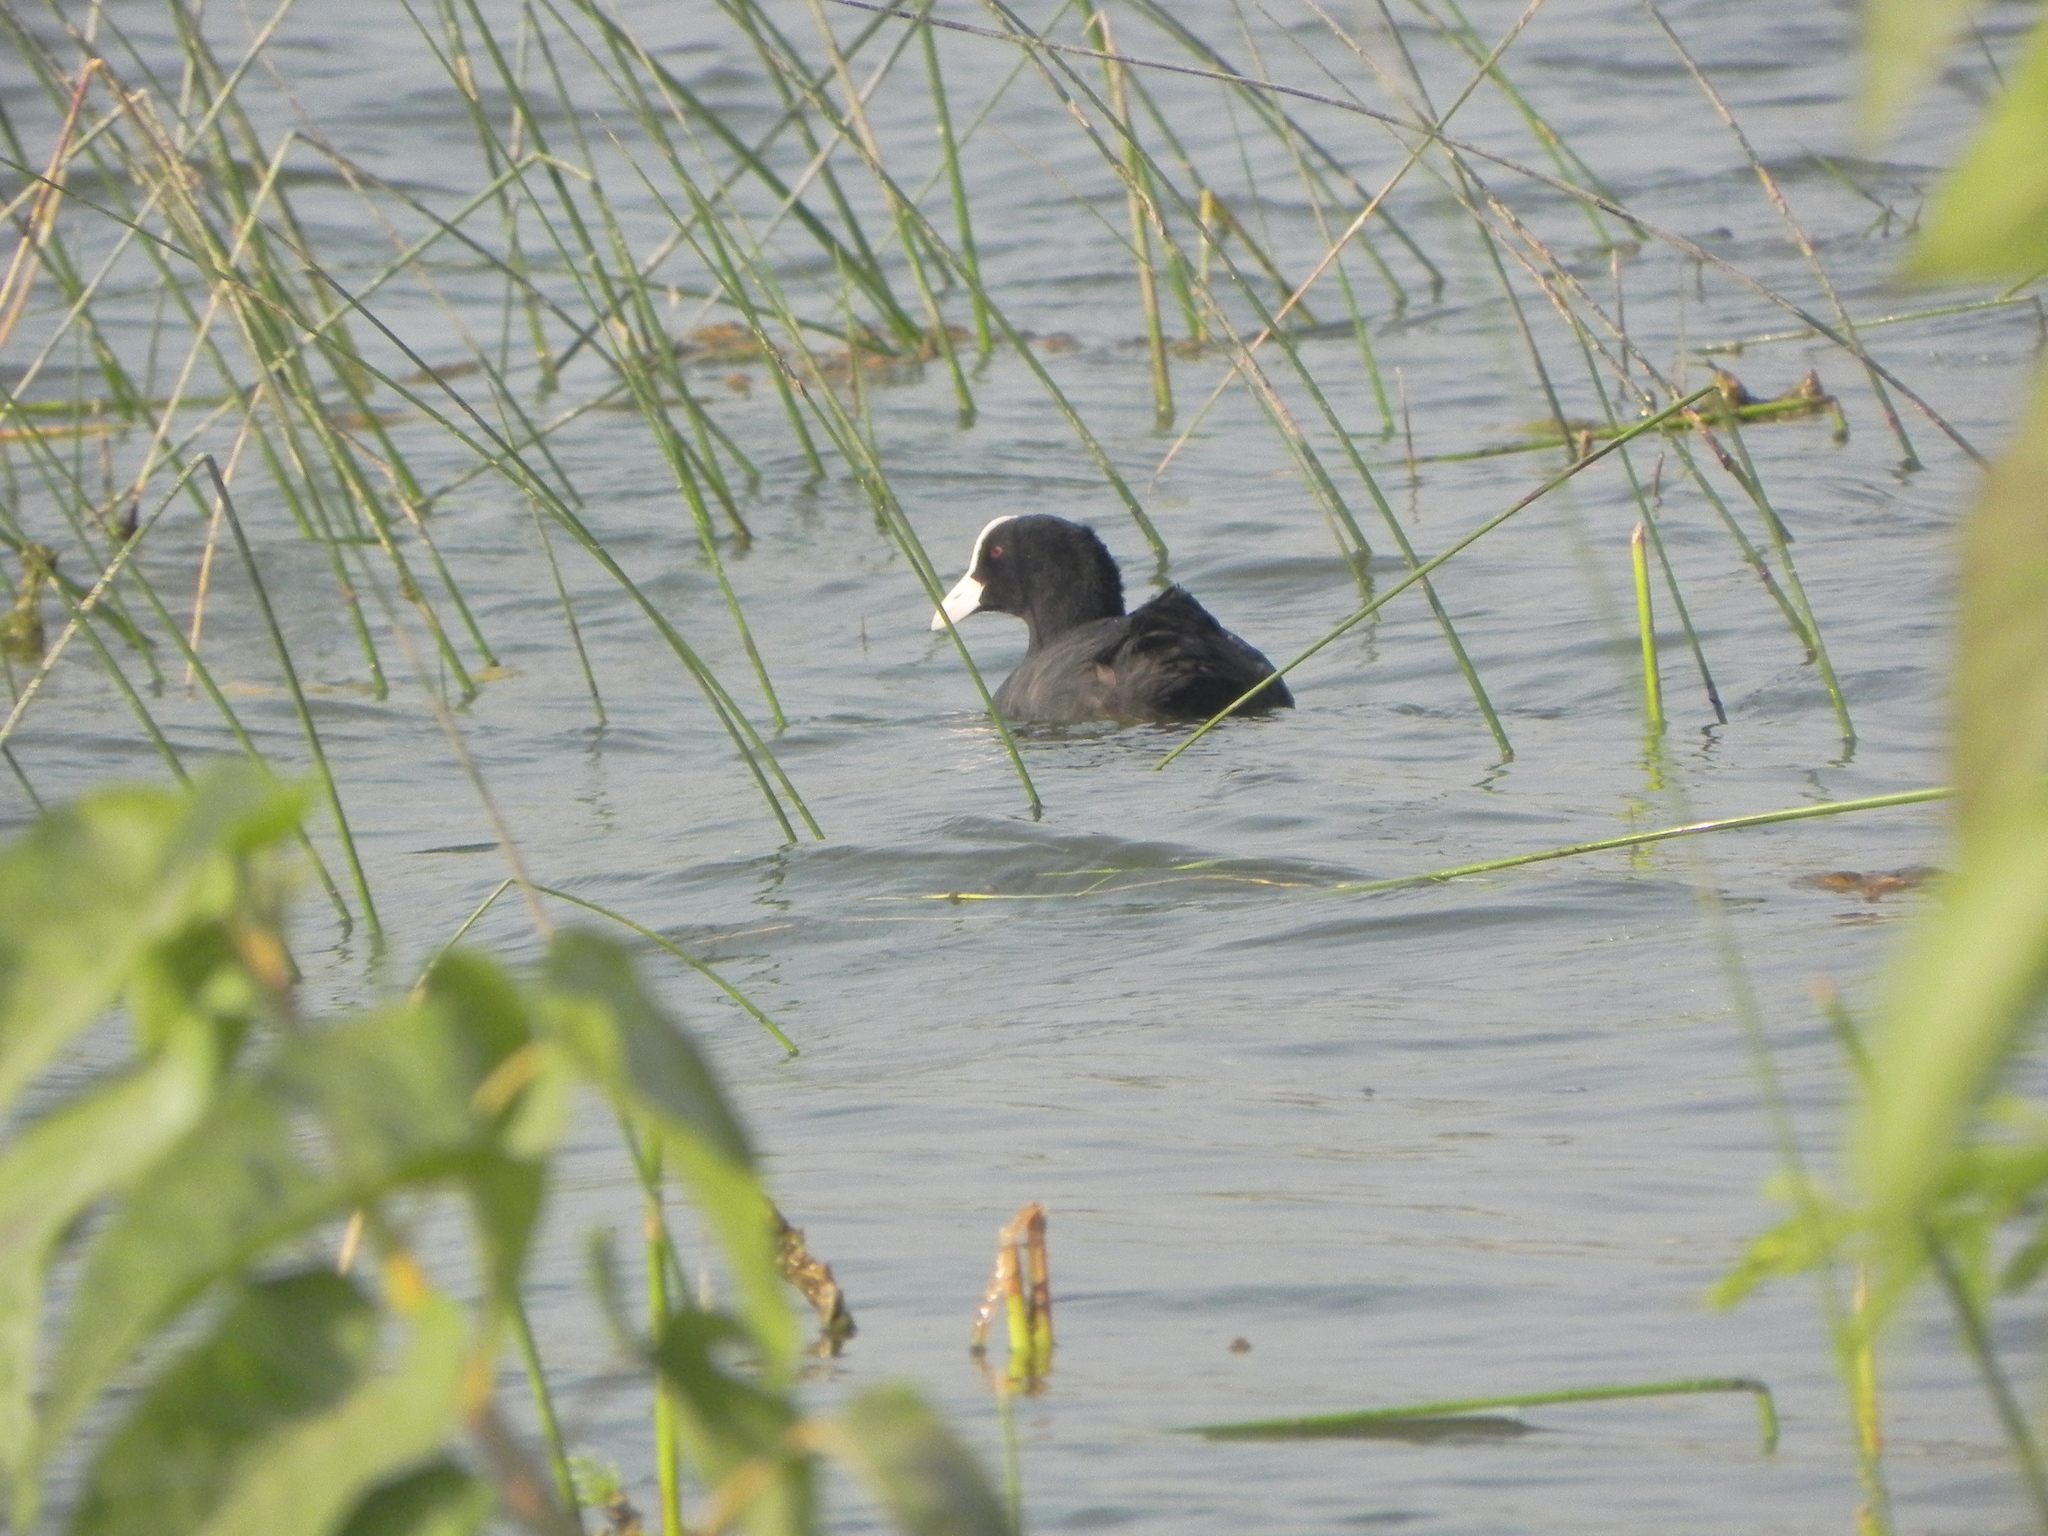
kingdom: Animalia
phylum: Chordata
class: Aves
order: Gruiformes
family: Rallidae
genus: Fulica
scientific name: Fulica atra
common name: Eurasian coot
